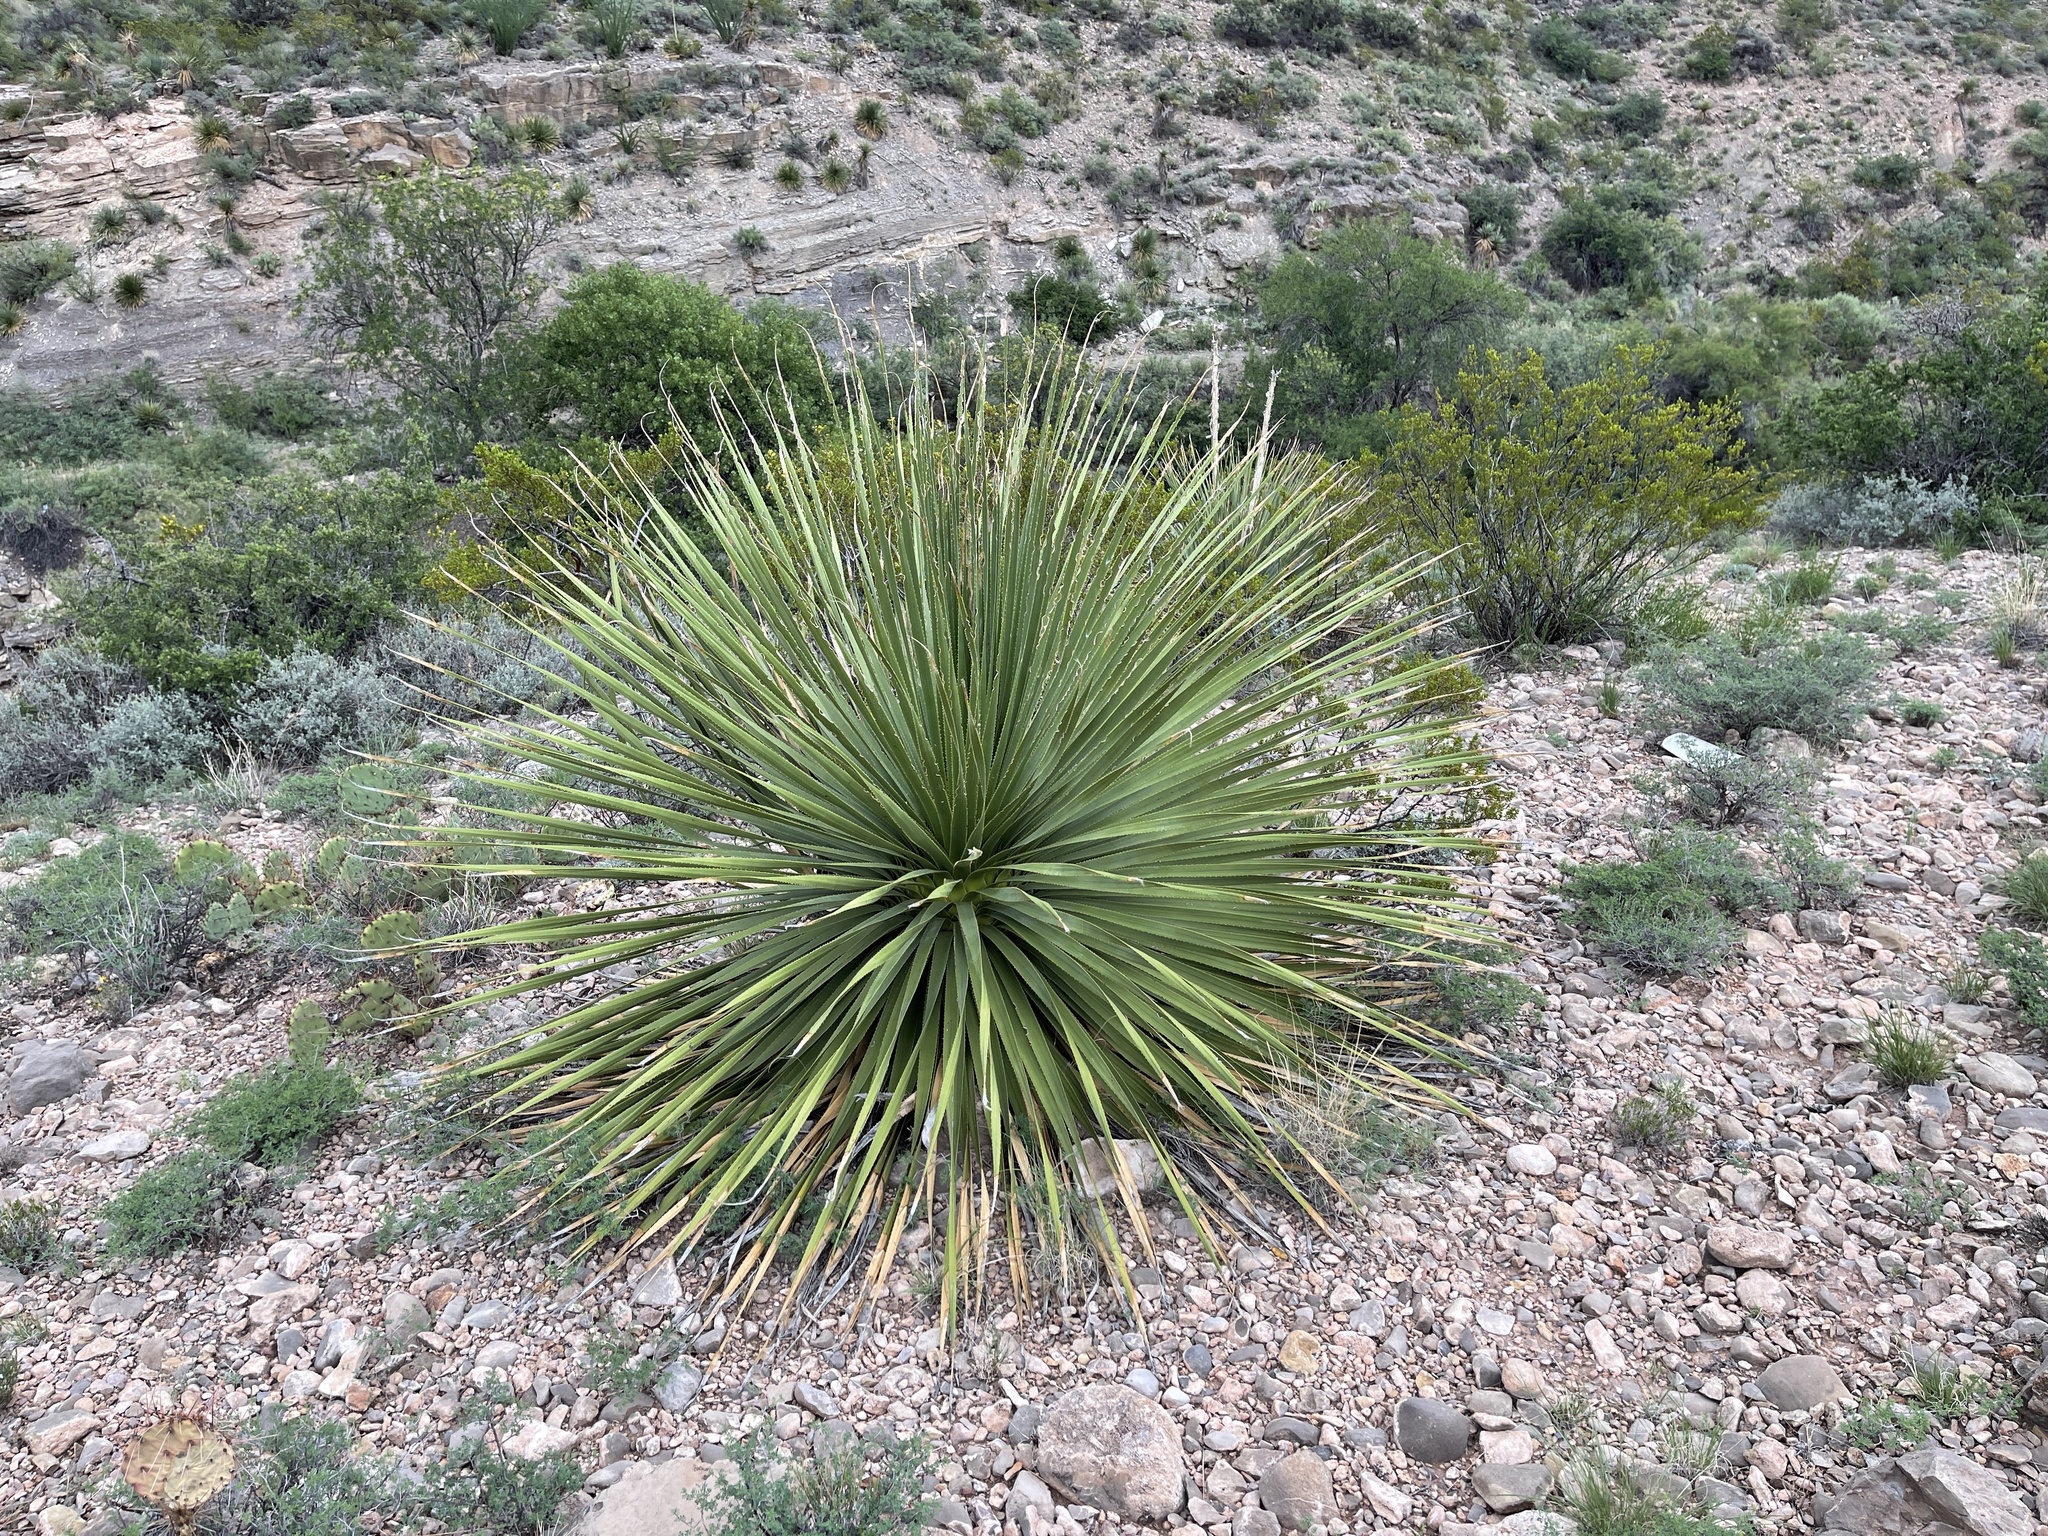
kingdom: Plantae
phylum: Tracheophyta
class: Liliopsida
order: Asparagales
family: Asparagaceae
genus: Dasylirion
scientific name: Dasylirion wheeleri
